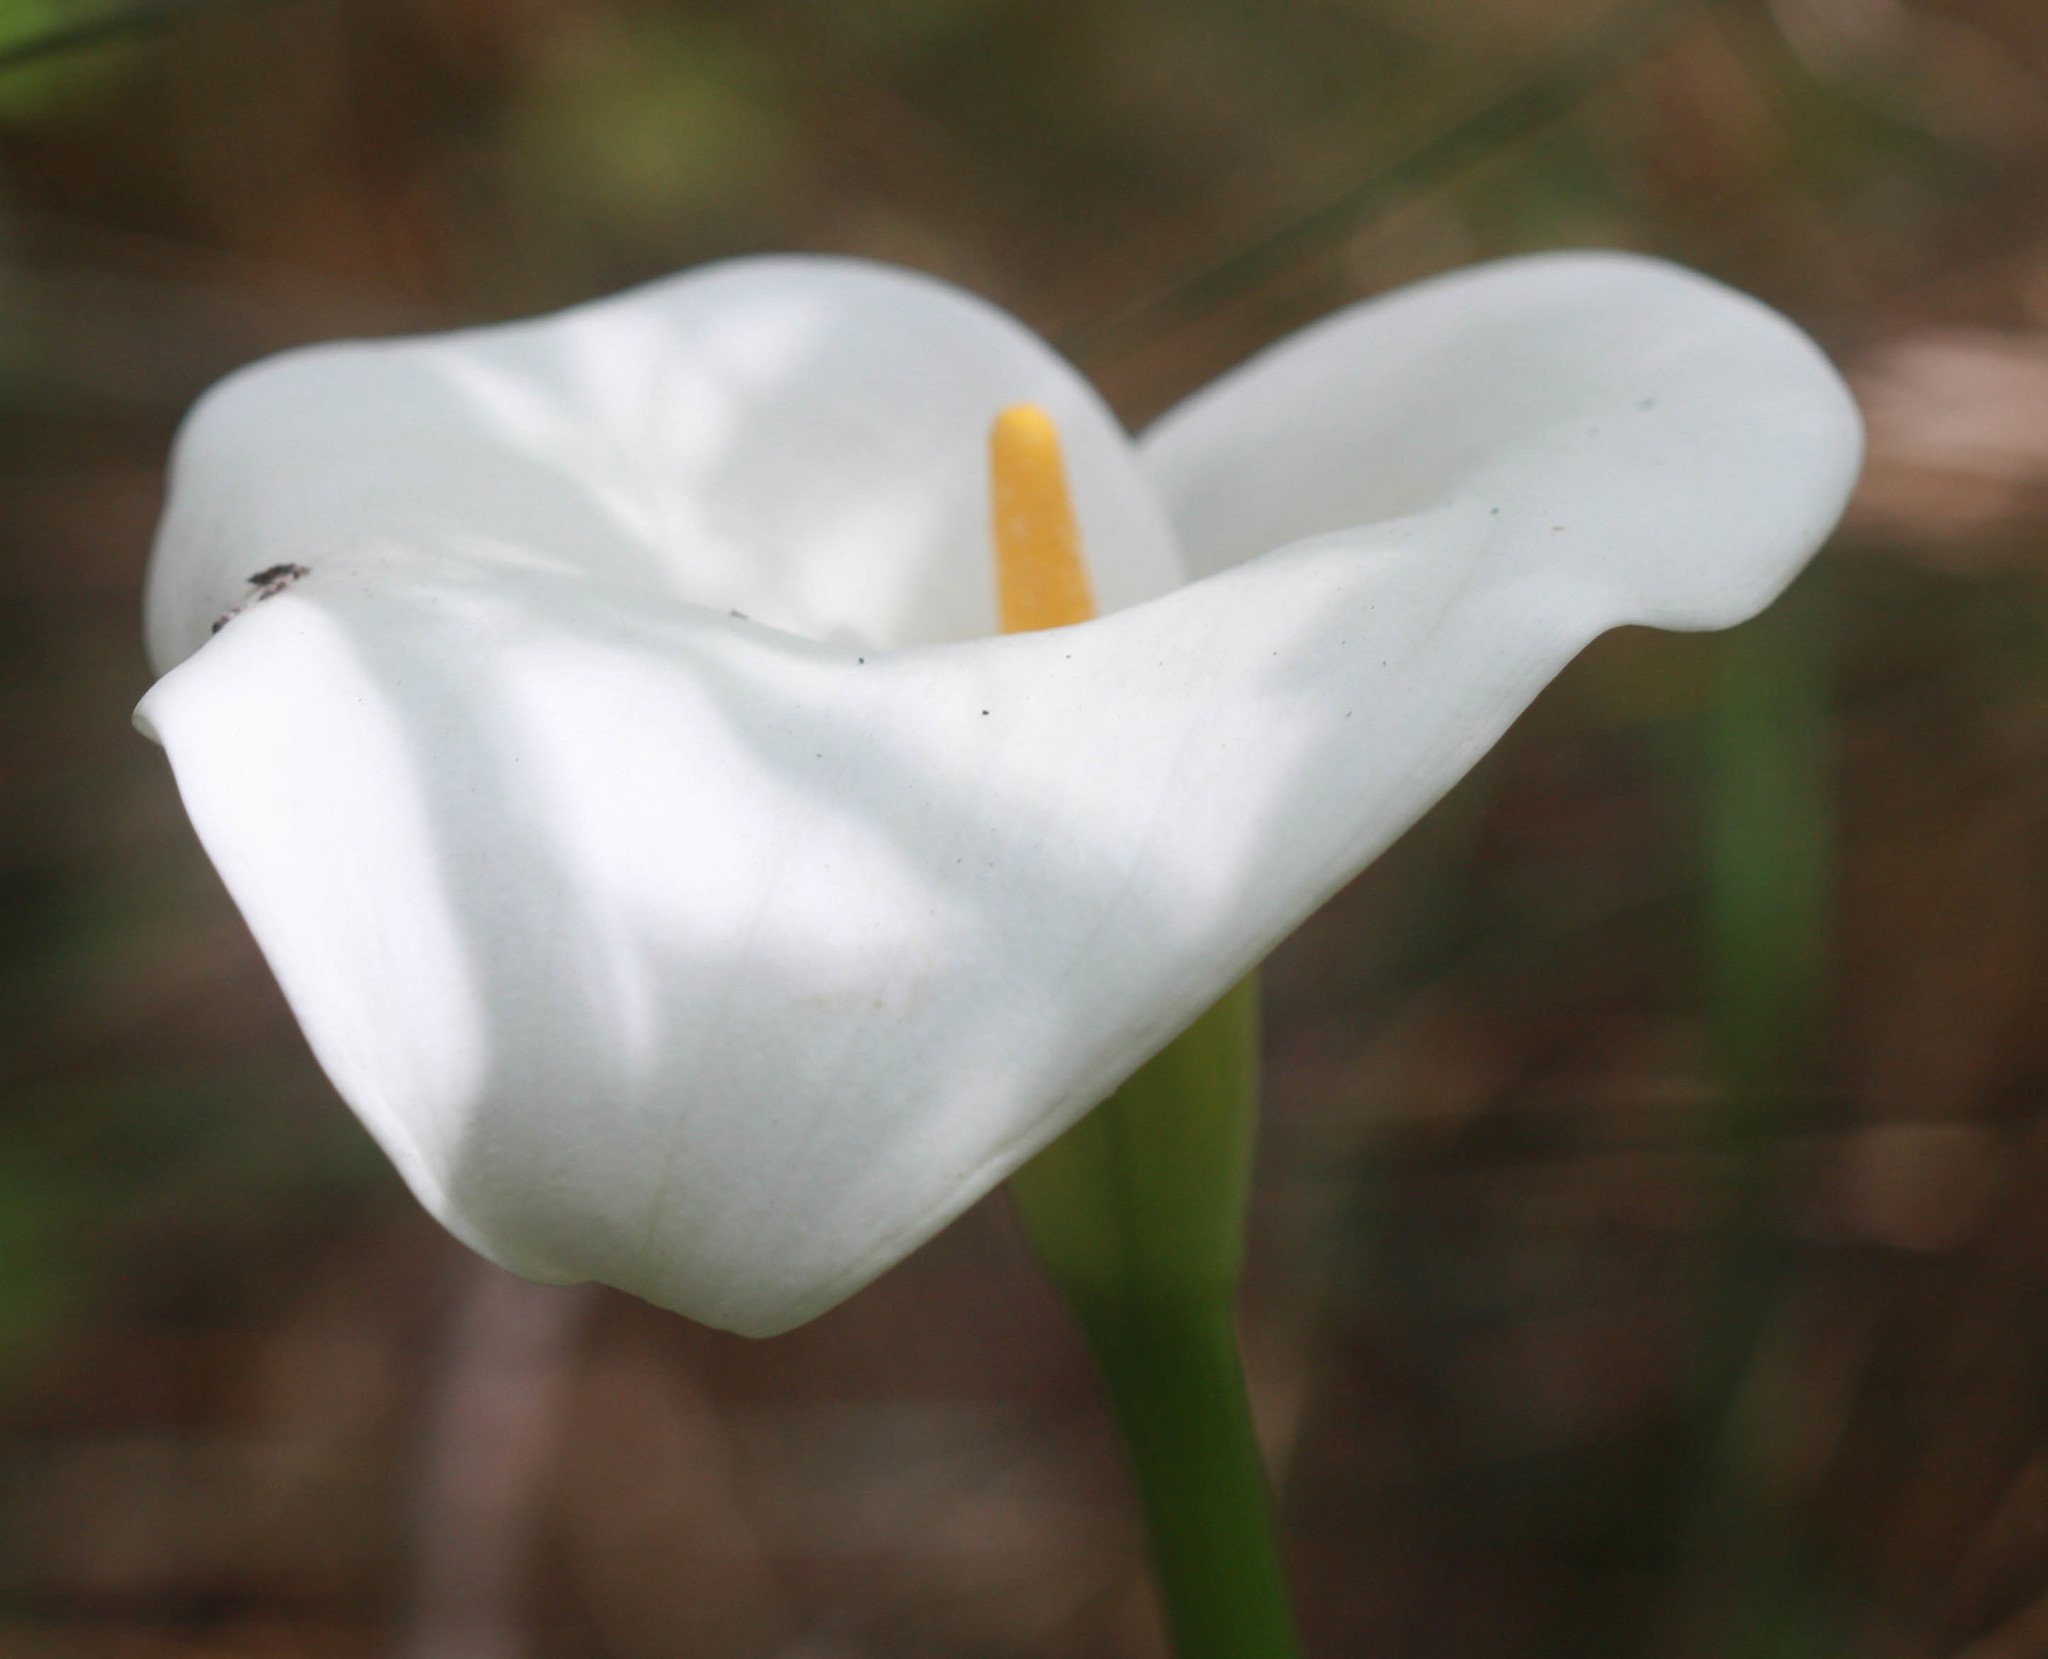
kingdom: Plantae
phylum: Tracheophyta
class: Liliopsida
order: Alismatales
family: Araceae
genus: Zantedeschia
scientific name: Zantedeschia aethiopica
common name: Altar-lily
